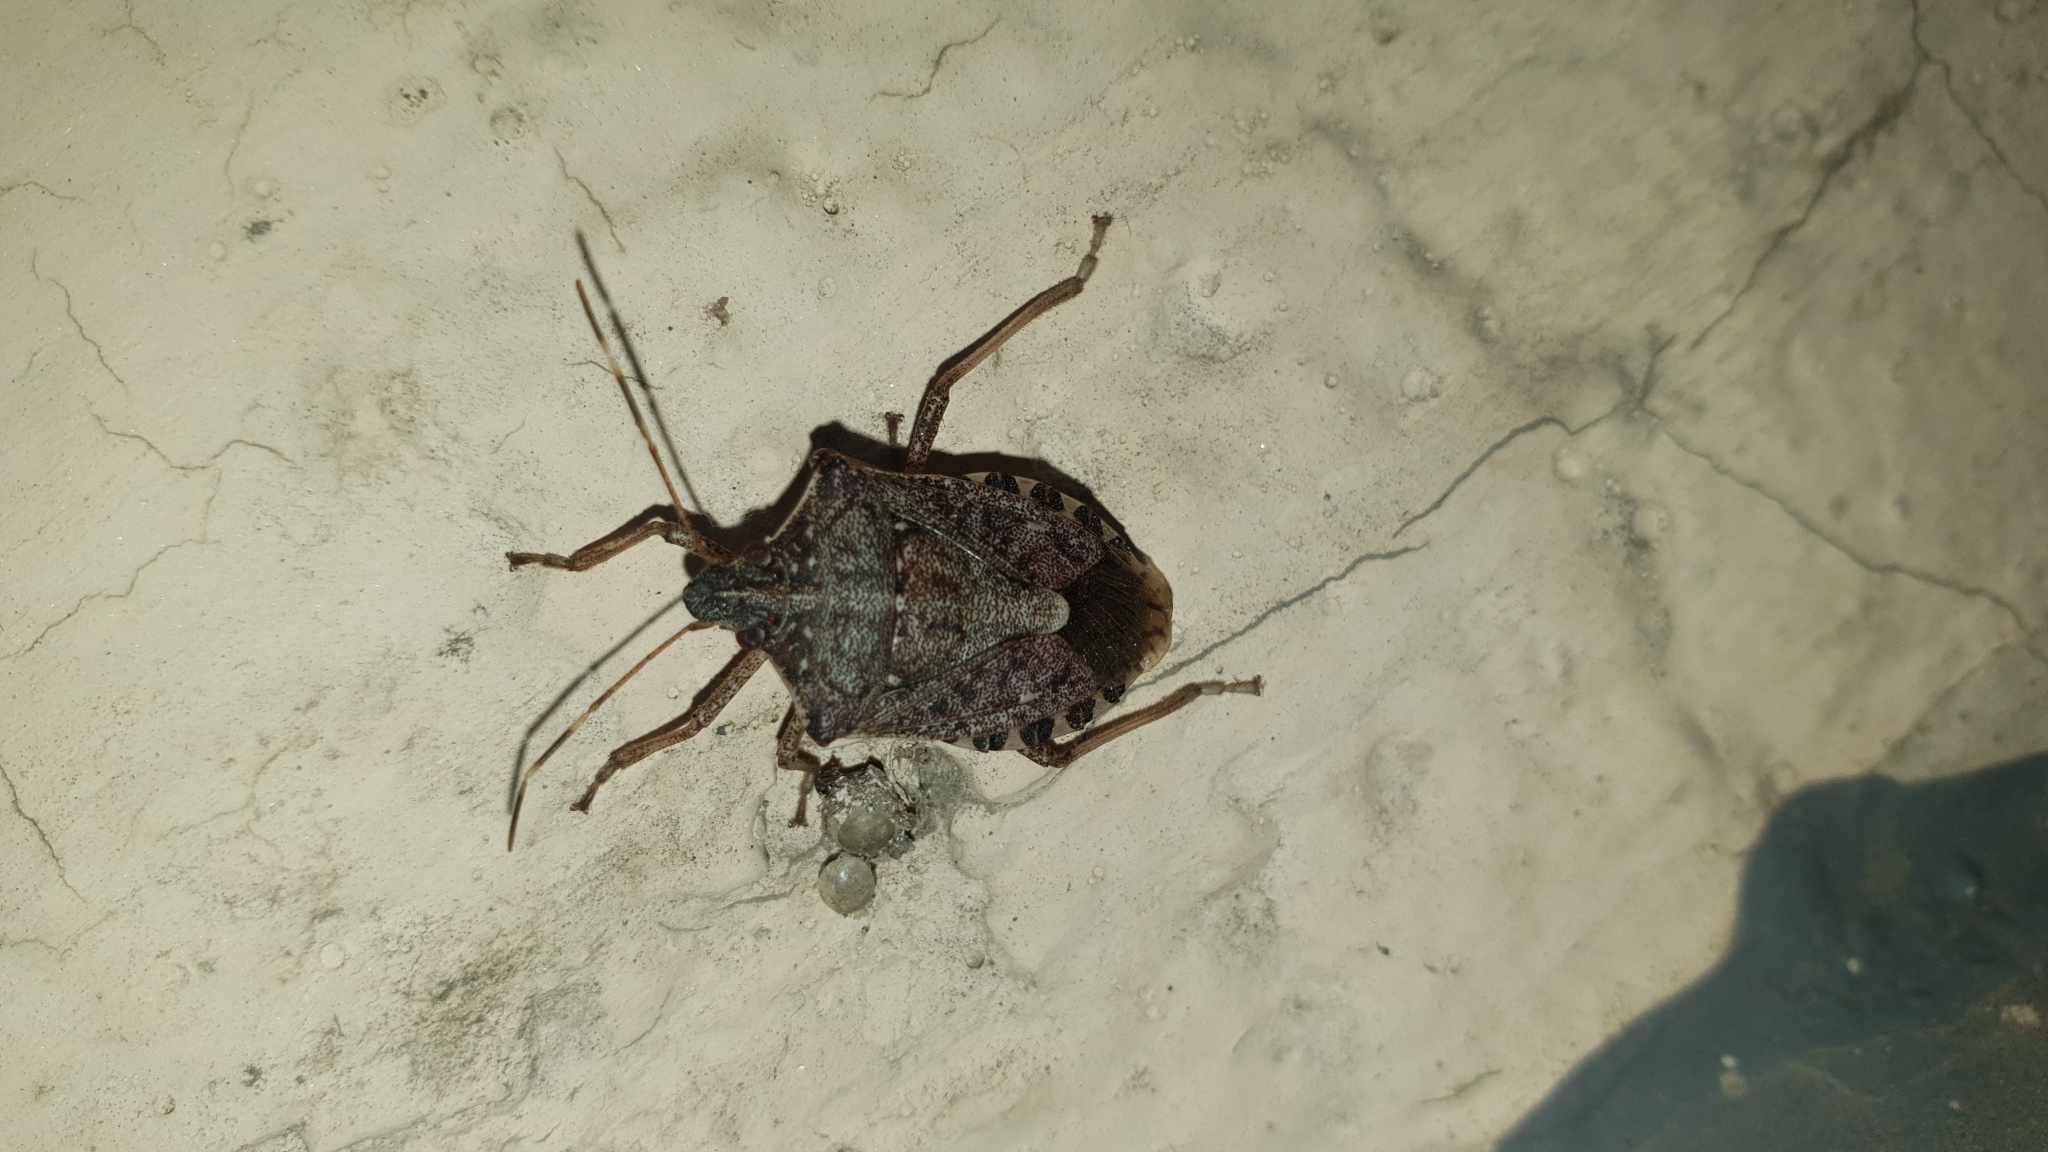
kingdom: Animalia
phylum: Arthropoda
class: Insecta
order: Hemiptera
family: Pentatomidae
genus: Halyomorpha
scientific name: Halyomorpha halys
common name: Brown marmorated stink bug
